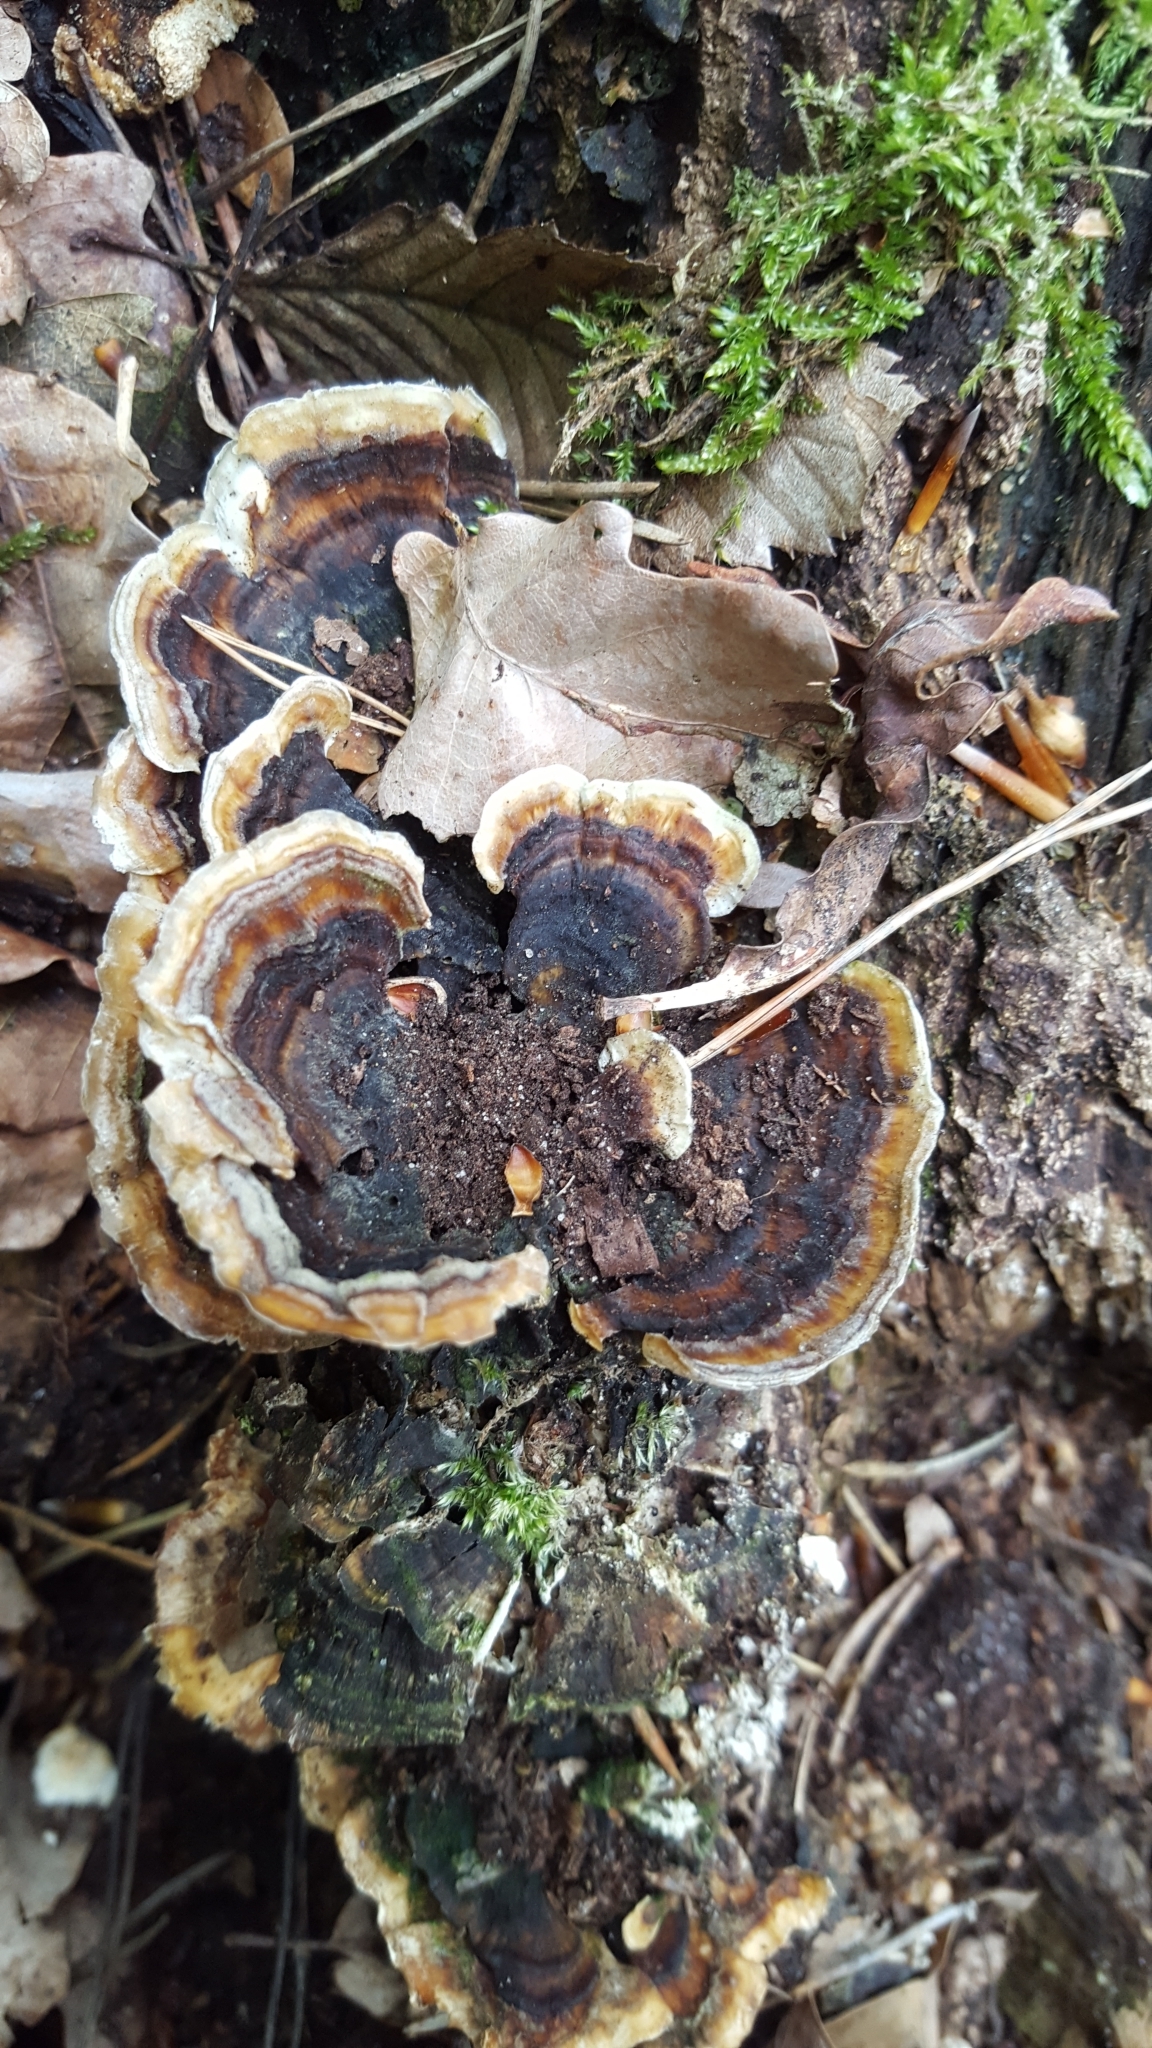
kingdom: Fungi
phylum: Basidiomycota
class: Agaricomycetes
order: Polyporales
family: Polyporaceae
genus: Trametes
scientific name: Trametes versicolor
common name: Turkeytail
